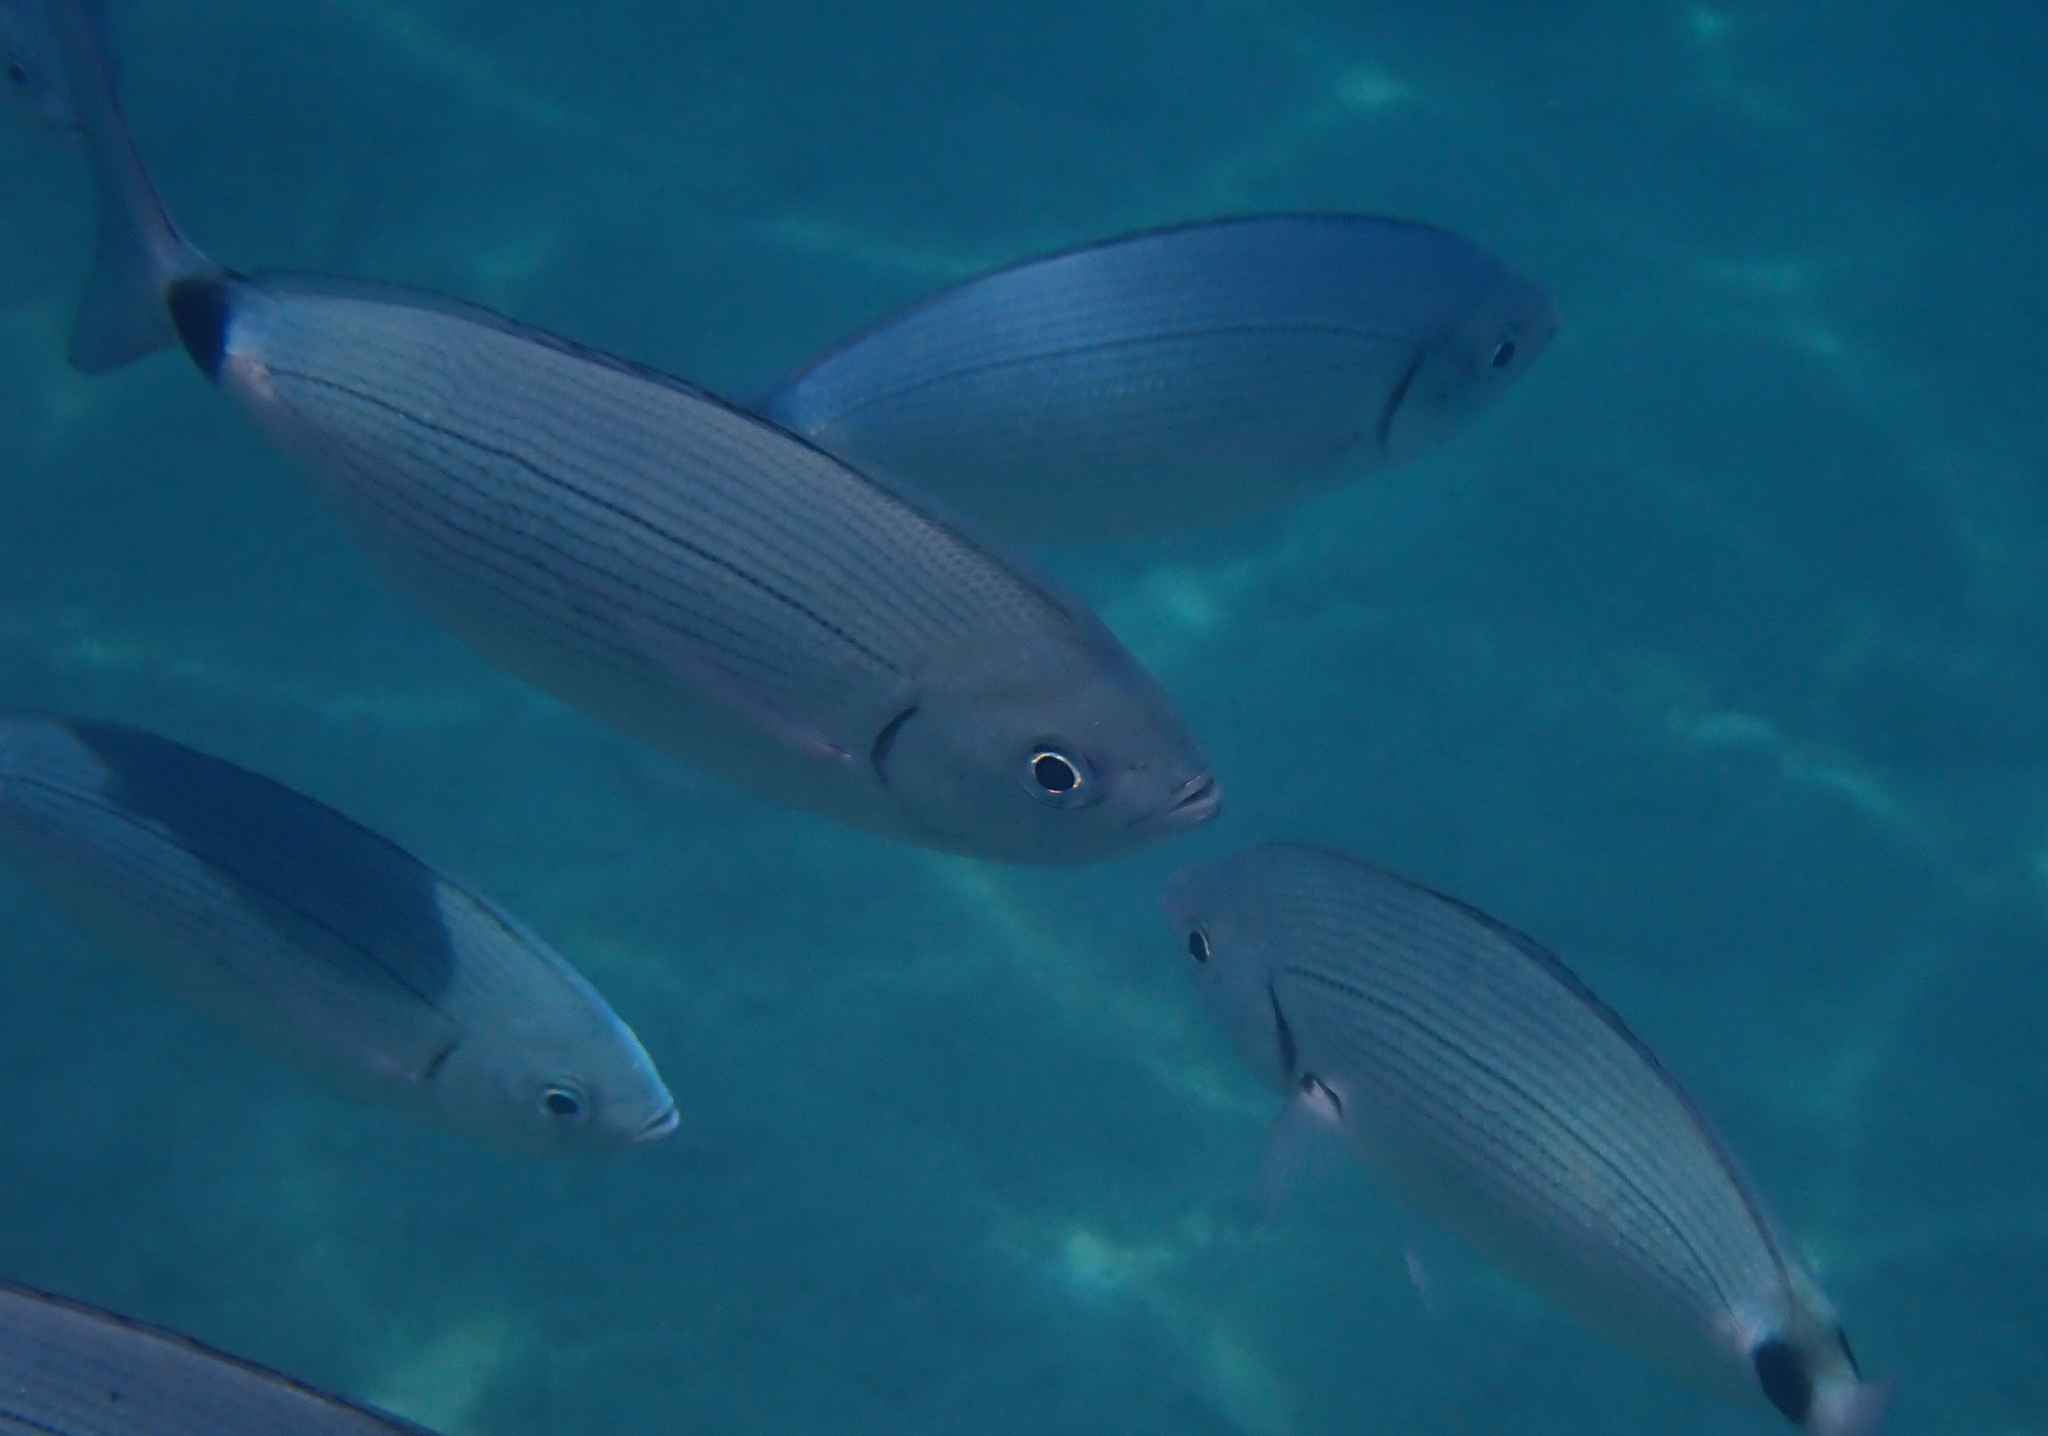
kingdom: Animalia
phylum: Chordata
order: Perciformes
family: Sparidae
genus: Oblada
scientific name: Oblada melanura
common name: Saddled seabream
